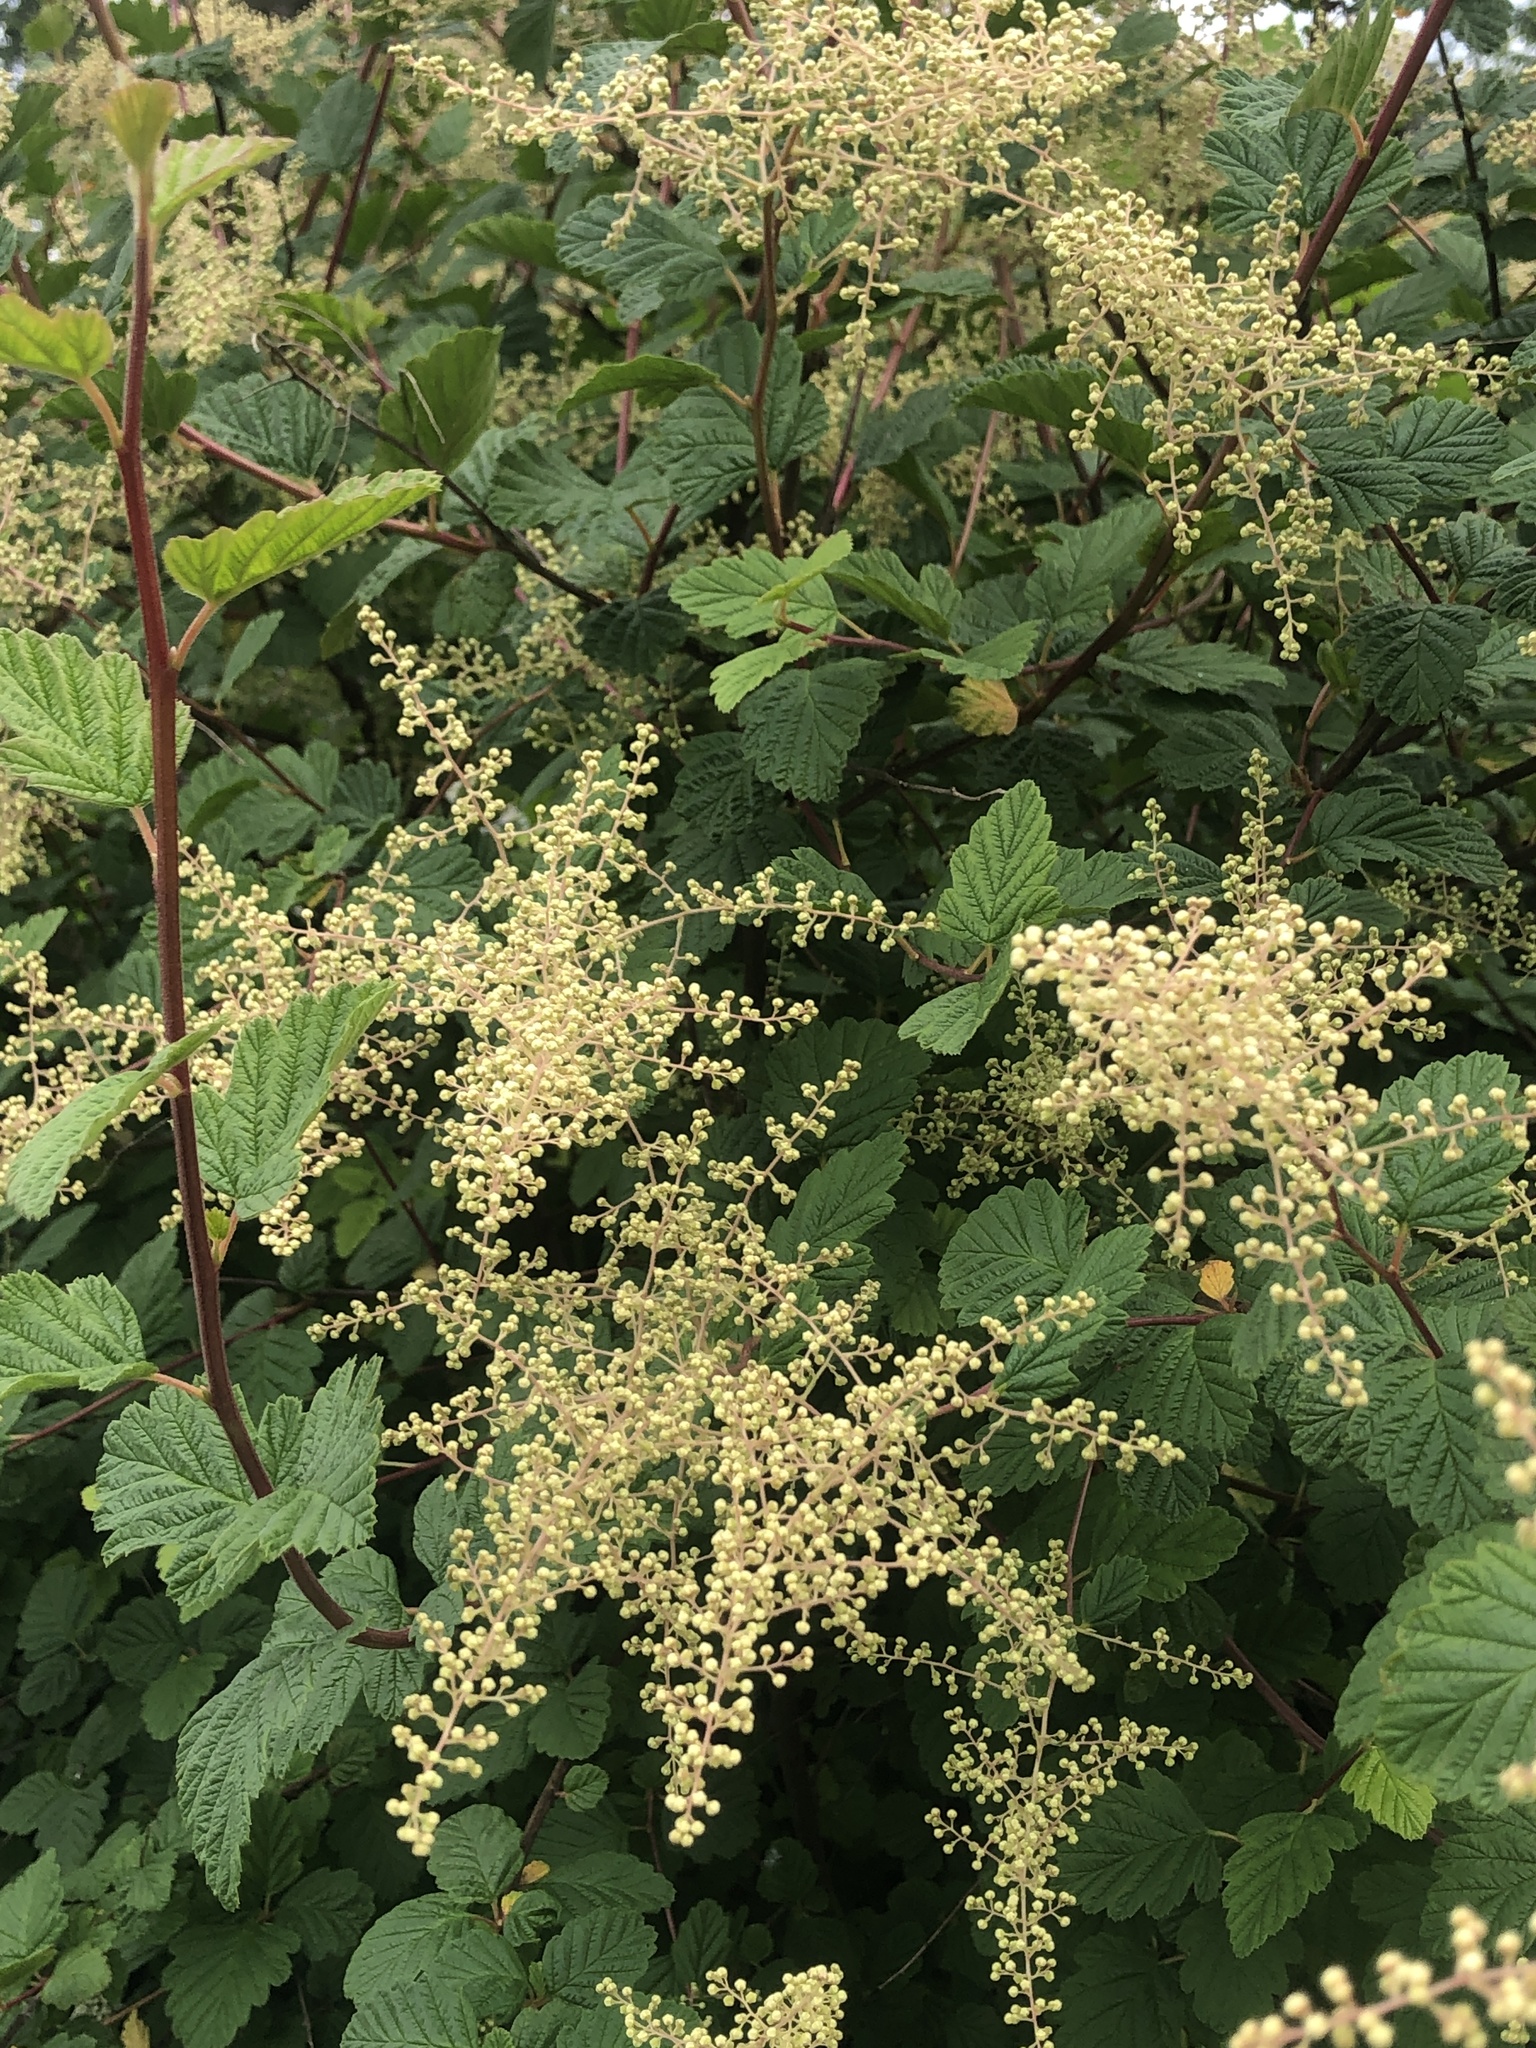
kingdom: Plantae
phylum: Tracheophyta
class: Magnoliopsida
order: Rosales
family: Rosaceae
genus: Holodiscus
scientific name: Holodiscus discolor
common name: Oceanspray
